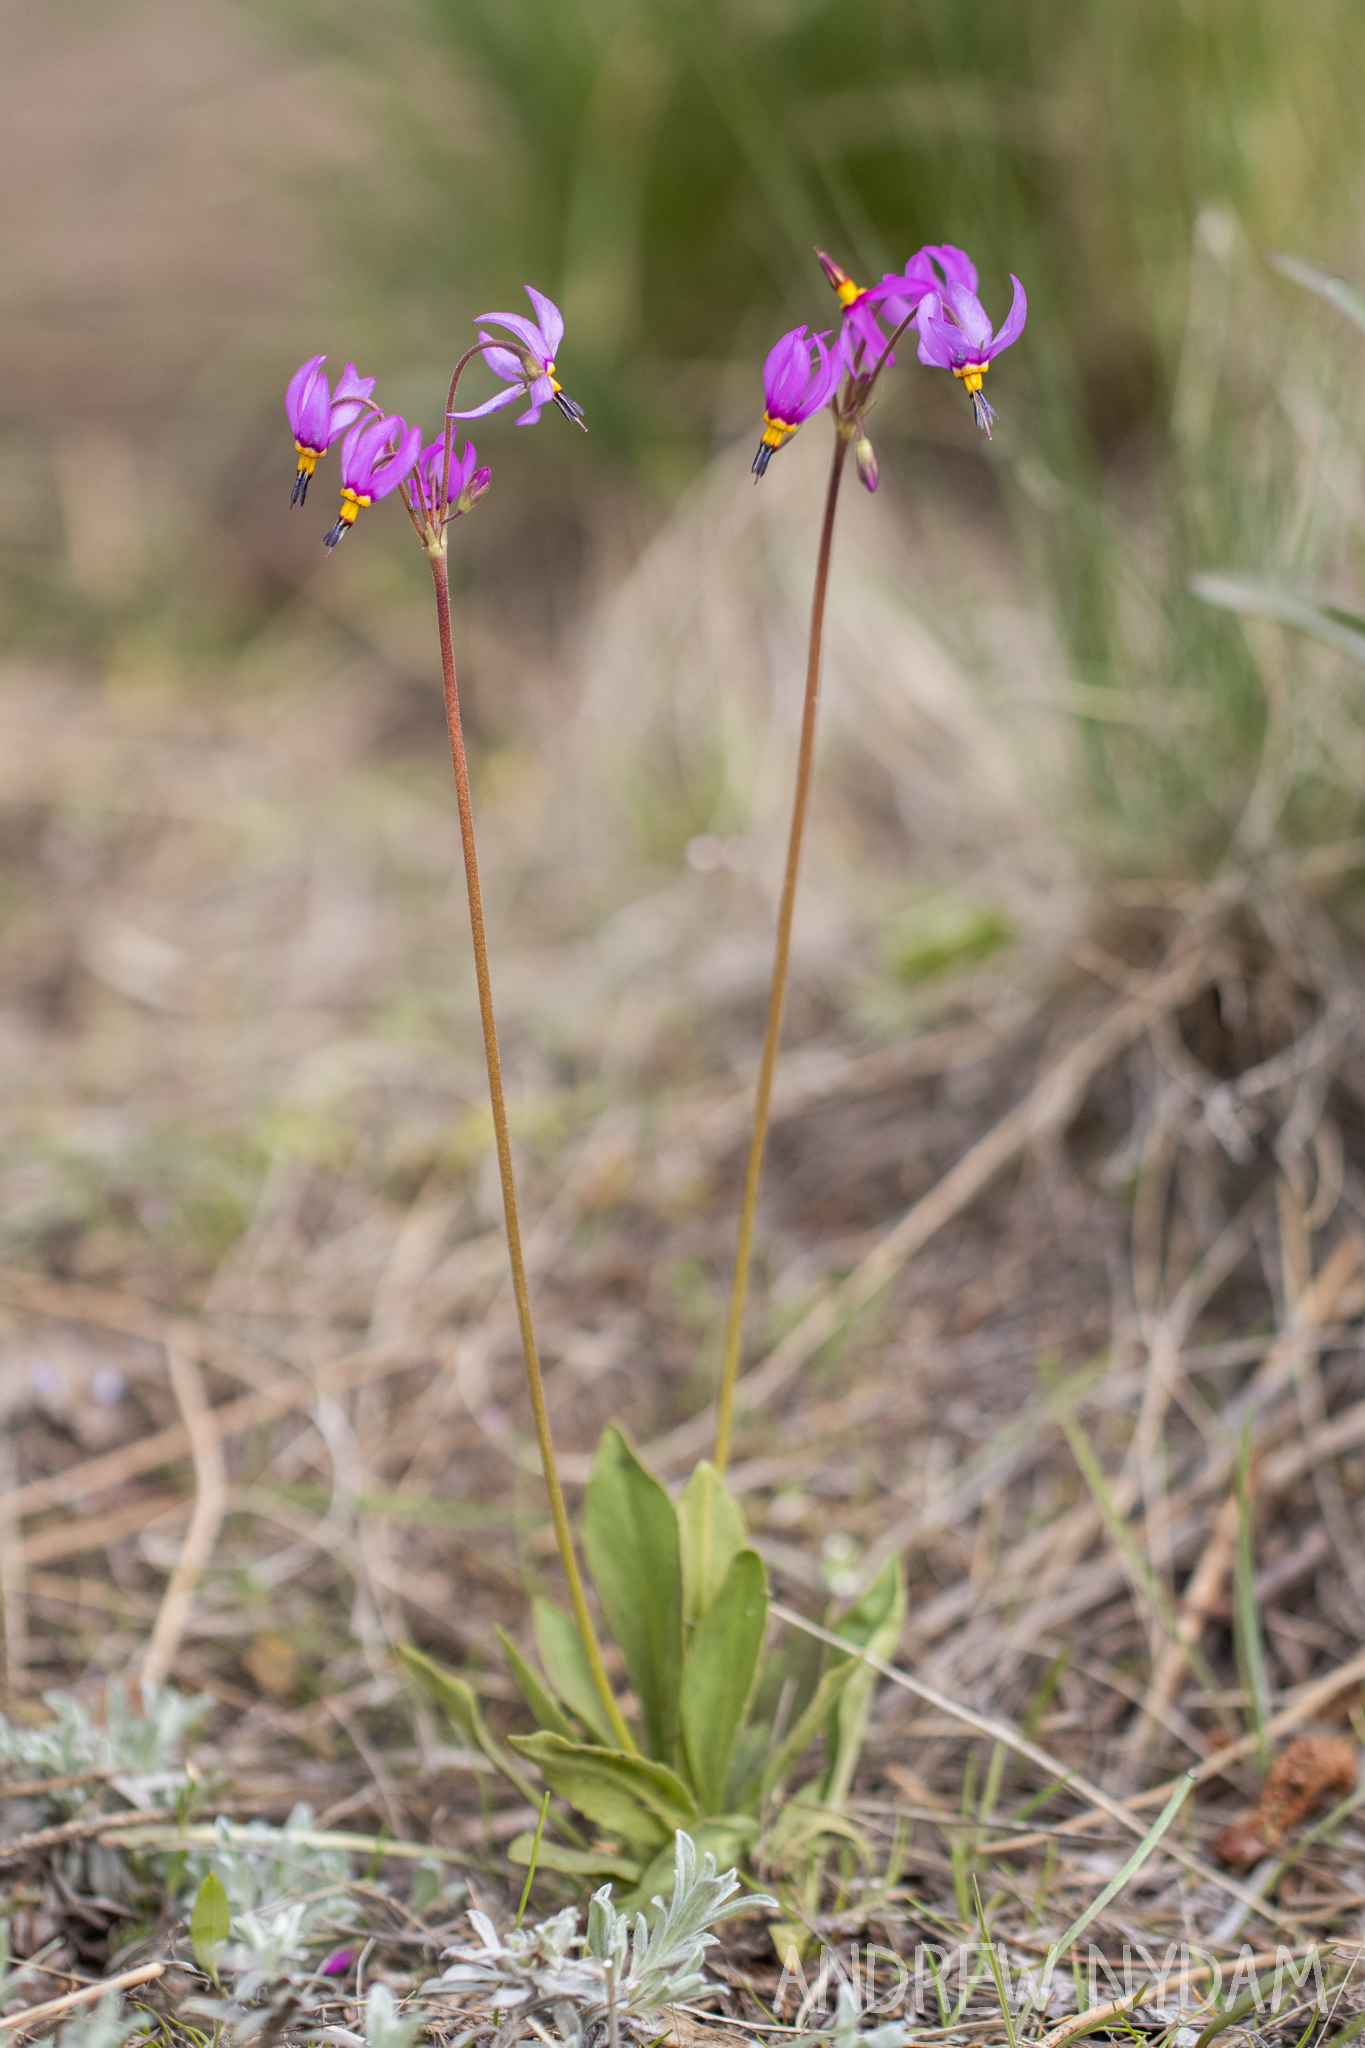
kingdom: Plantae
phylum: Tracheophyta
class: Magnoliopsida
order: Ericales
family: Primulaceae
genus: Dodecatheon
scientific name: Dodecatheon pulchellum
